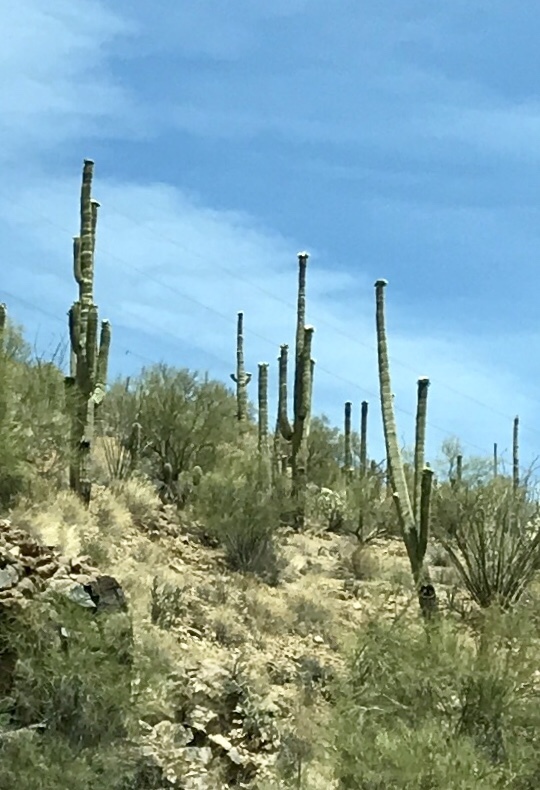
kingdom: Plantae
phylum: Tracheophyta
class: Magnoliopsida
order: Caryophyllales
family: Cactaceae
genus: Carnegiea
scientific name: Carnegiea gigantea
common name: Saguaro
